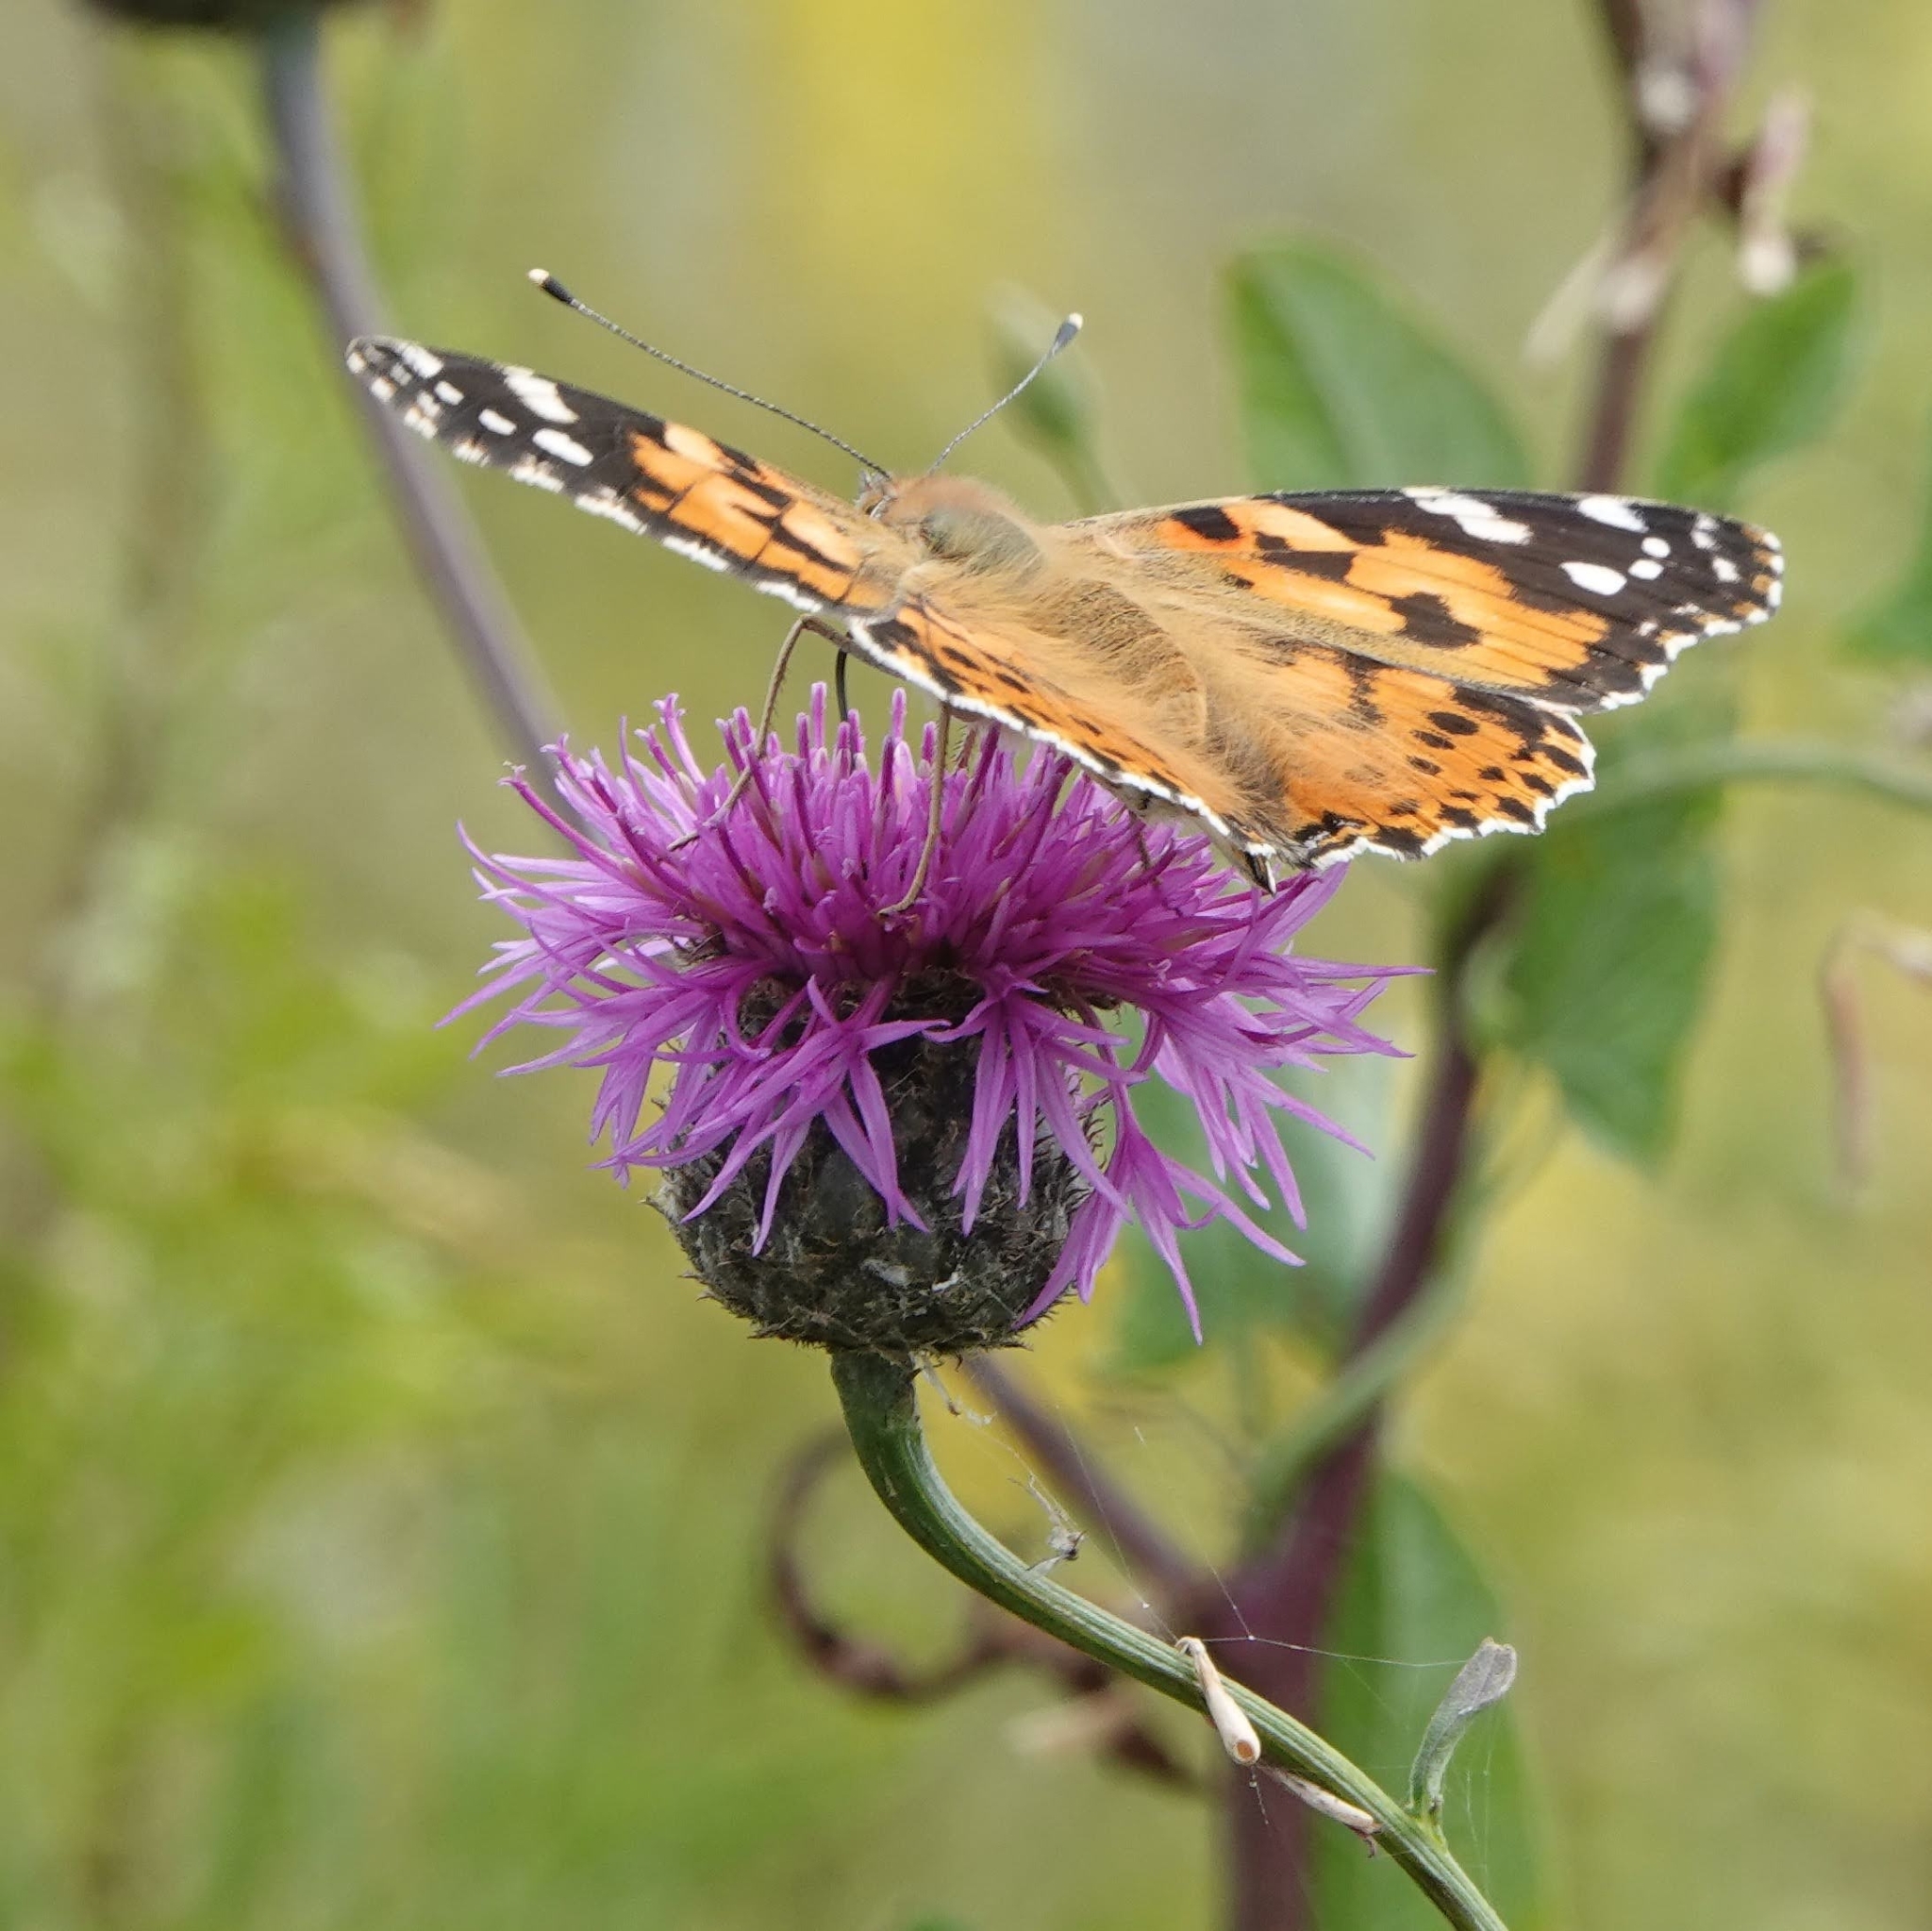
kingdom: Animalia
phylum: Arthropoda
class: Insecta
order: Lepidoptera
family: Nymphalidae
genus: Vanessa
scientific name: Vanessa cardui
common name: Painted lady
